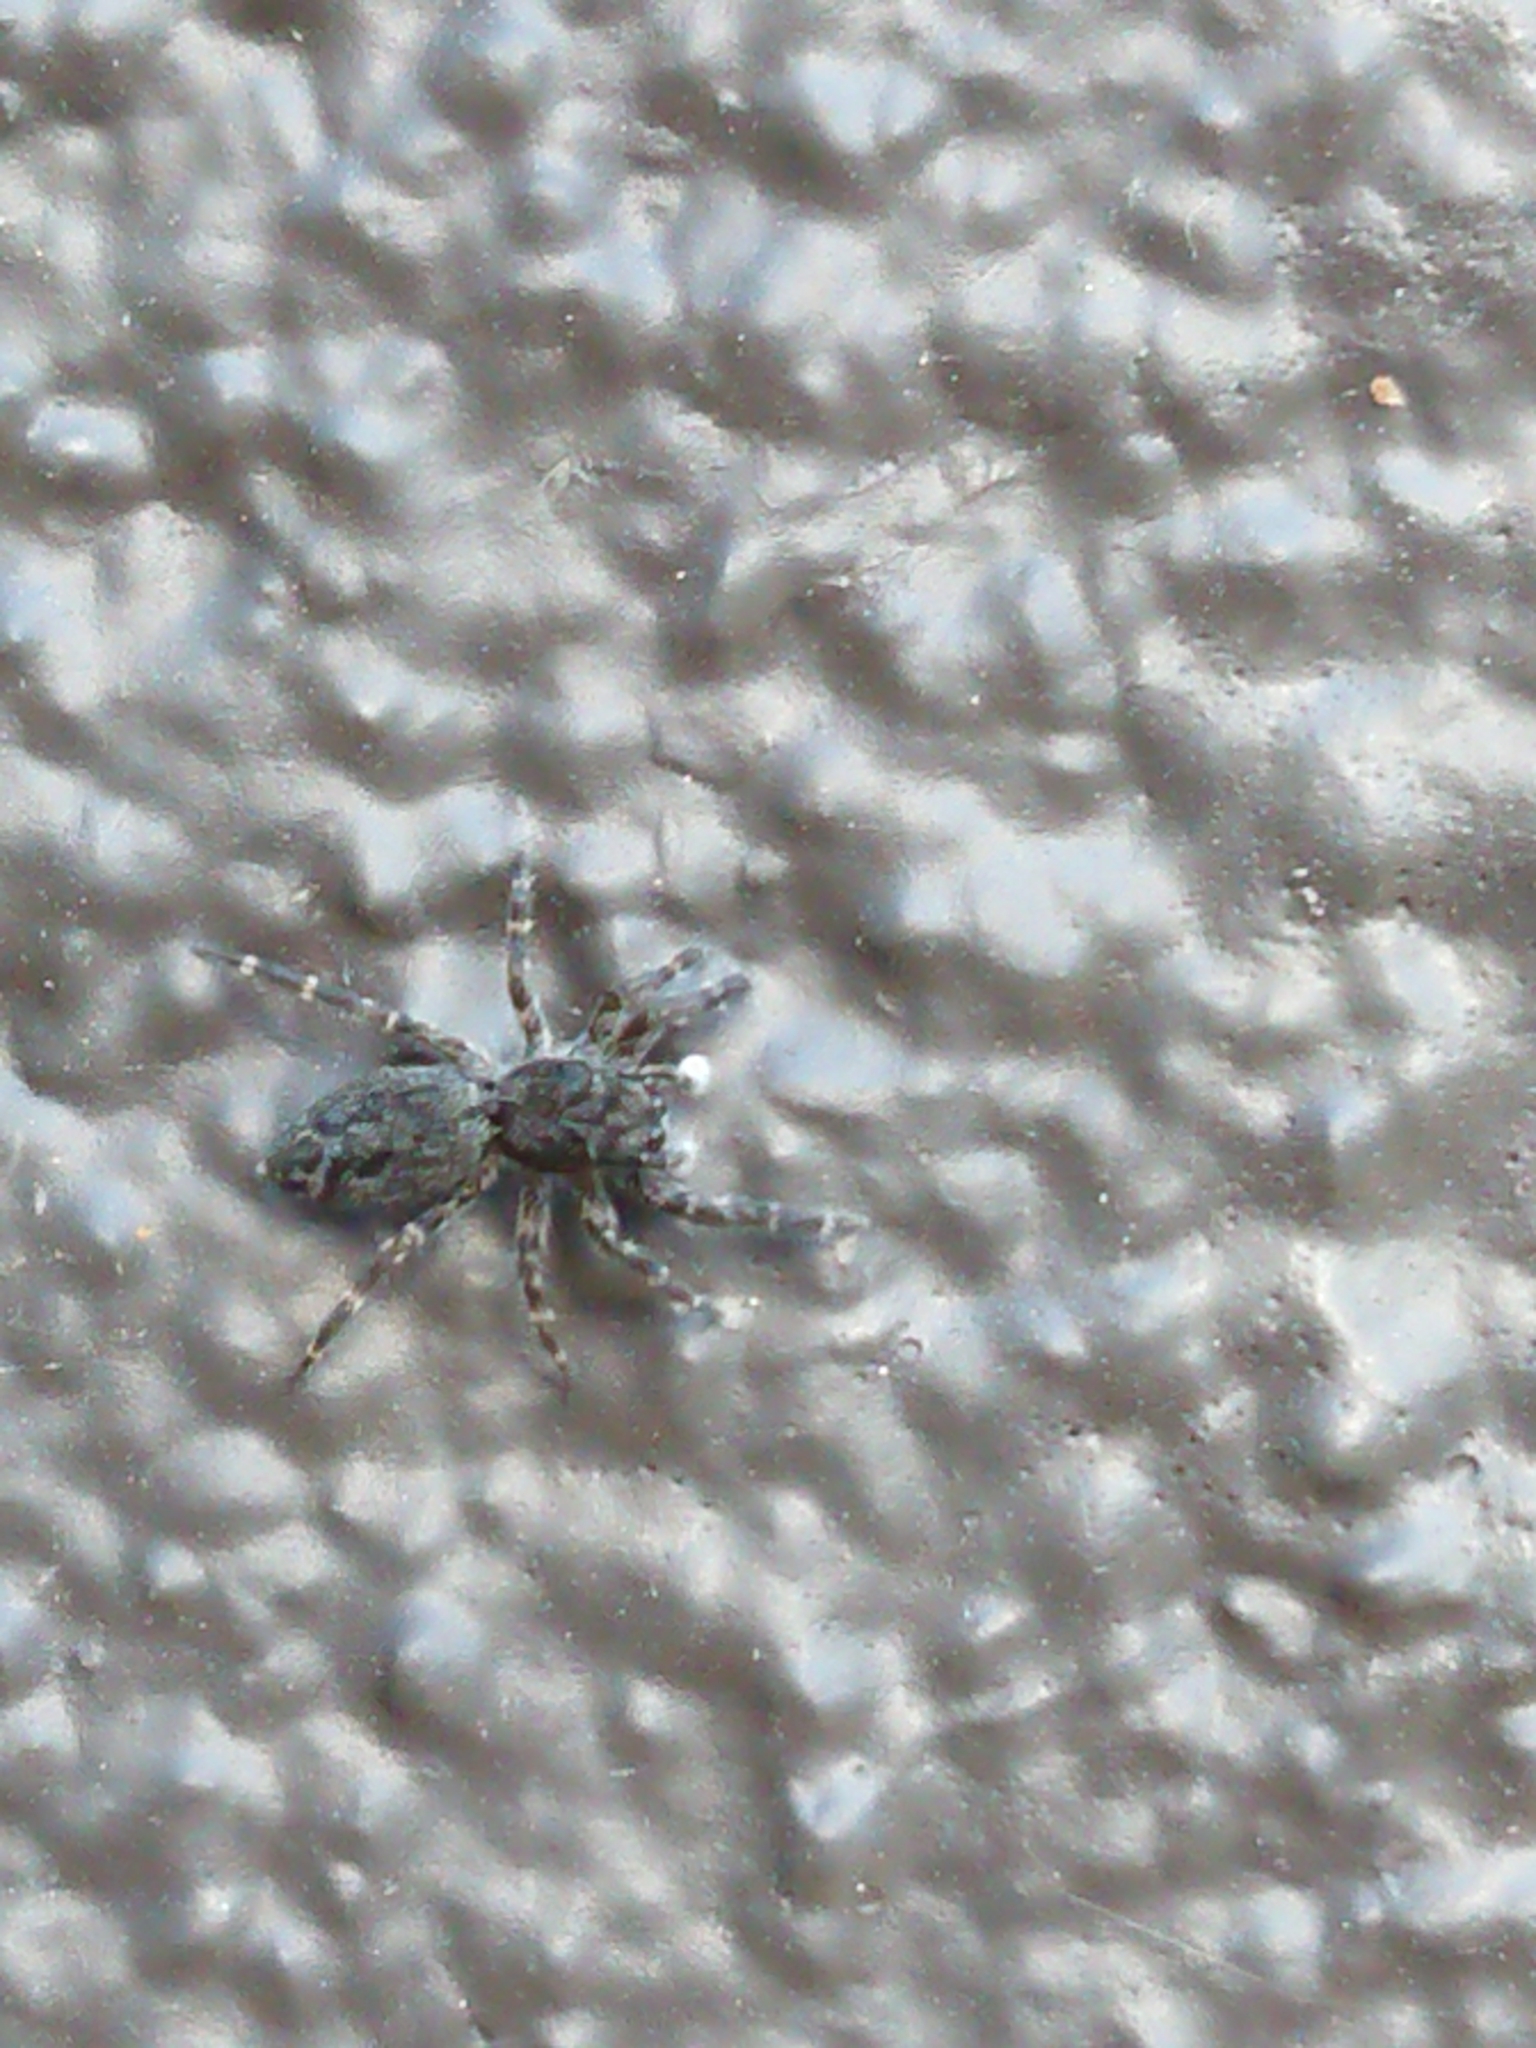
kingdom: Animalia
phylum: Arthropoda
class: Arachnida
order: Araneae
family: Salticidae
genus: Adoxotoma
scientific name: Adoxotoma forsteri
